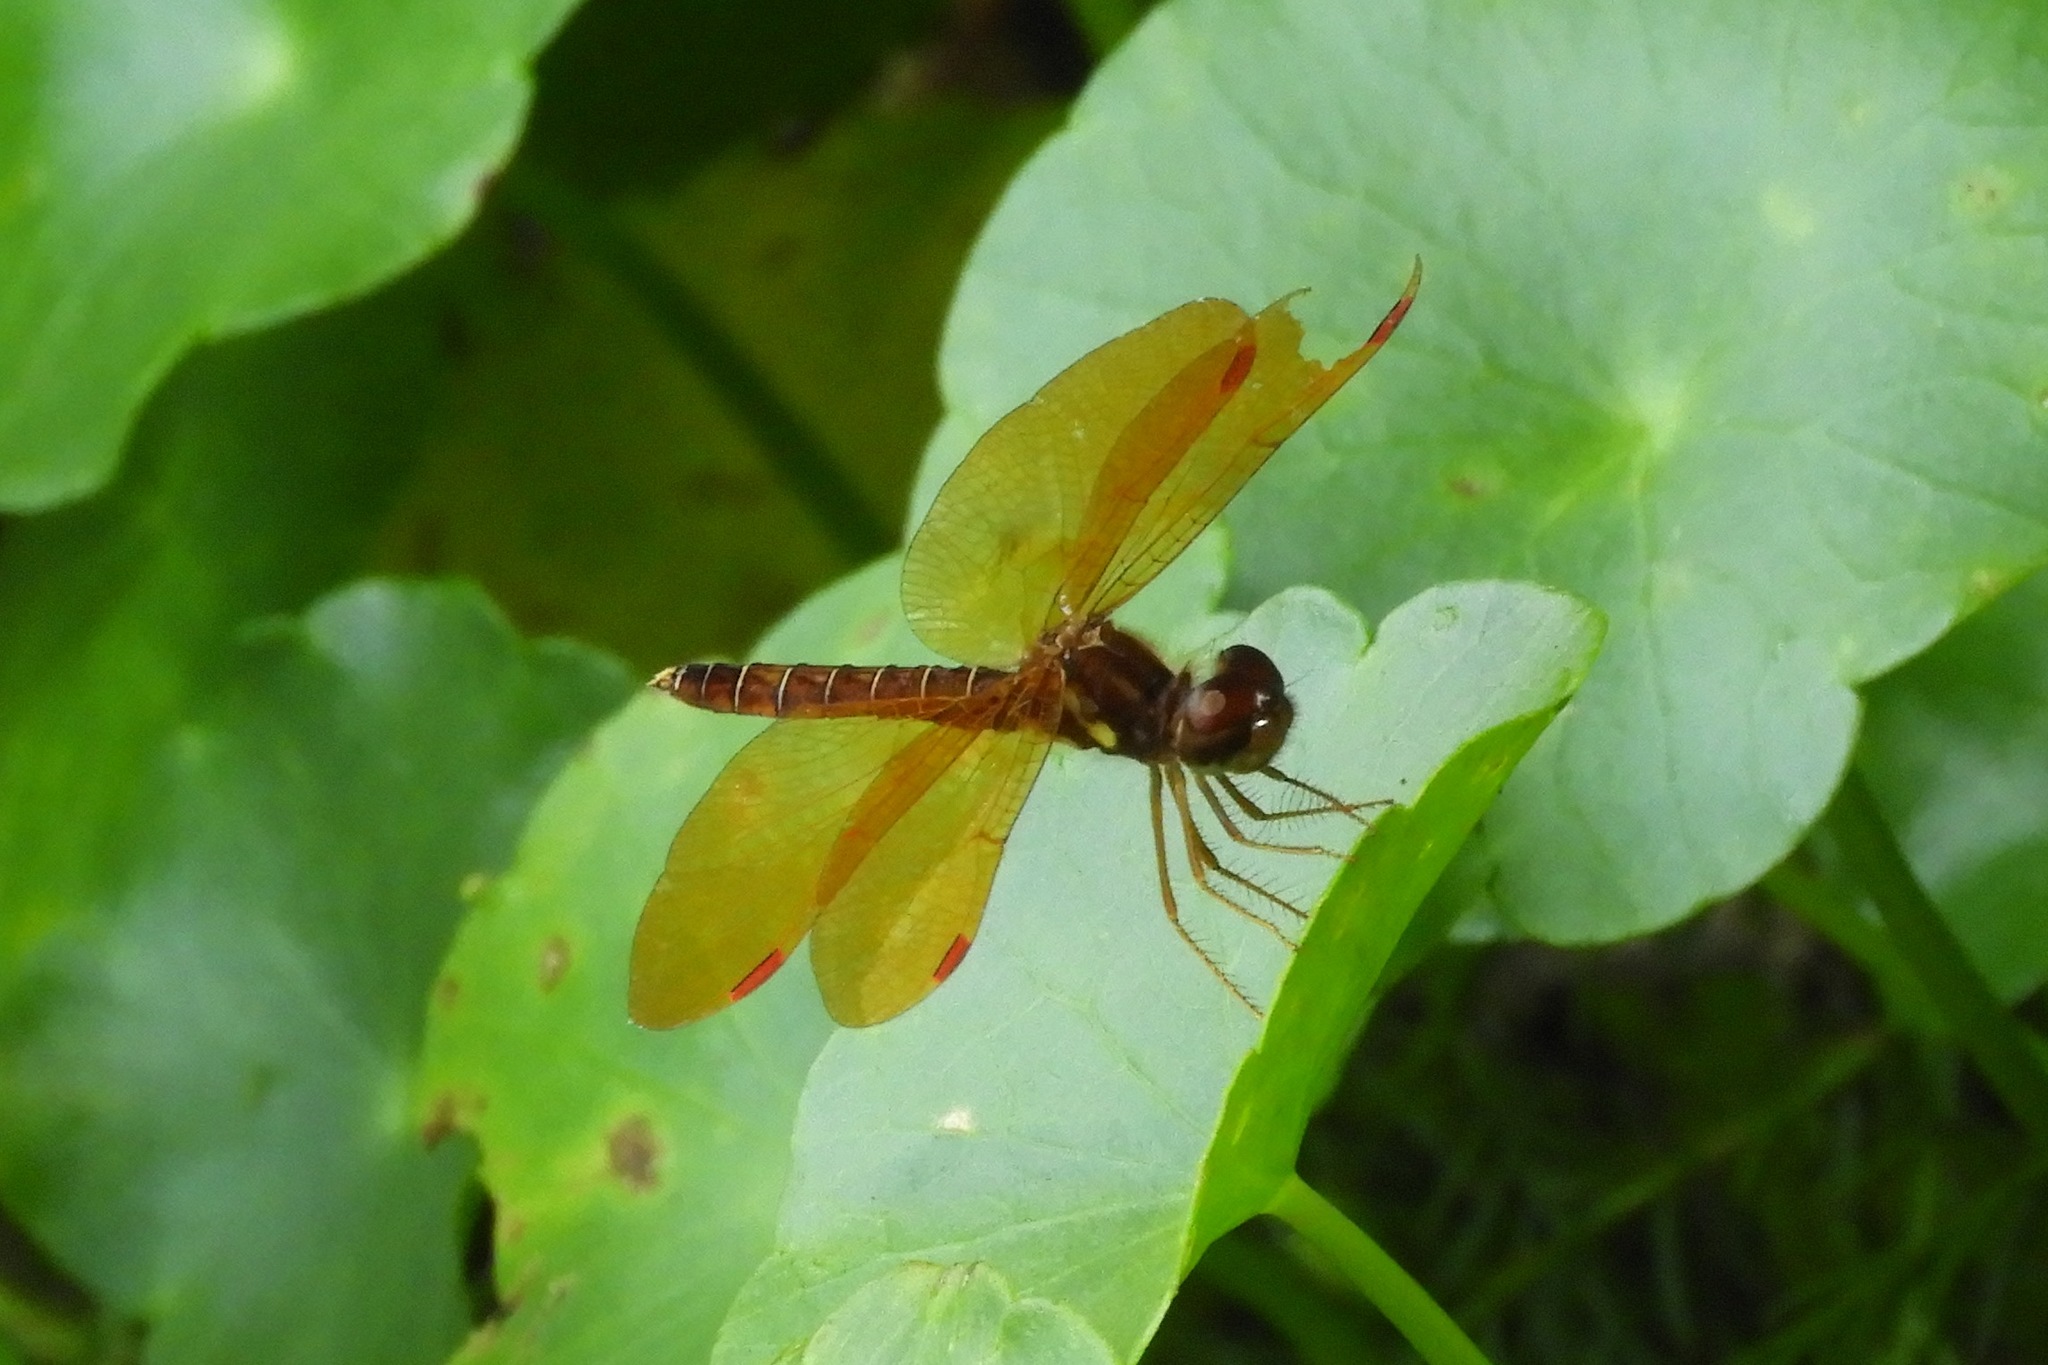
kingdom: Animalia
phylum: Arthropoda
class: Insecta
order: Odonata
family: Libellulidae
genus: Perithemis
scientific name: Perithemis tenera
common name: Eastern amberwing
